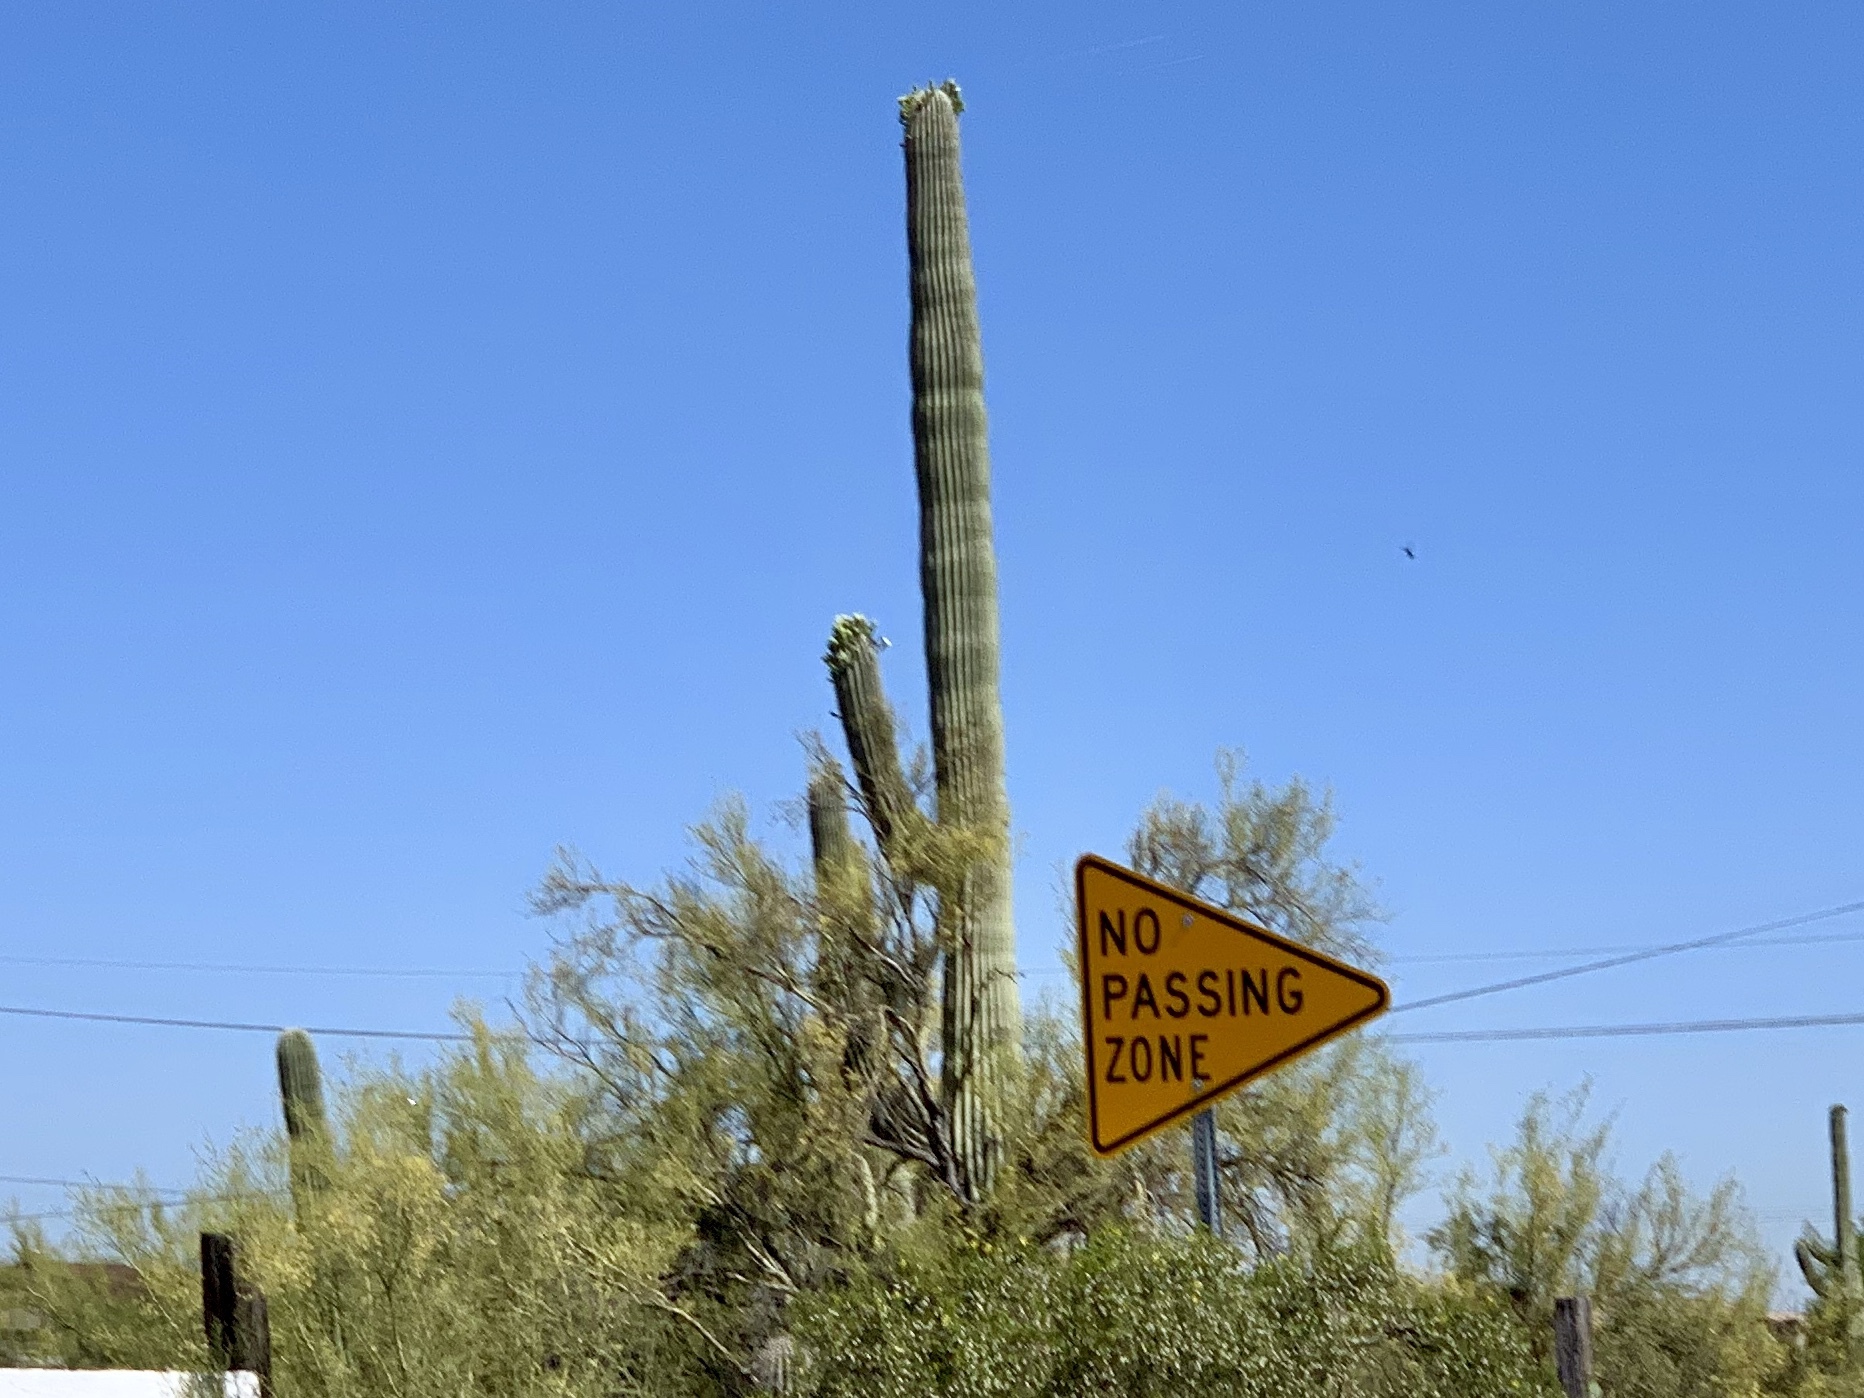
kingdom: Plantae
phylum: Tracheophyta
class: Magnoliopsida
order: Caryophyllales
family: Cactaceae
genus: Carnegiea
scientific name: Carnegiea gigantea
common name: Saguaro
